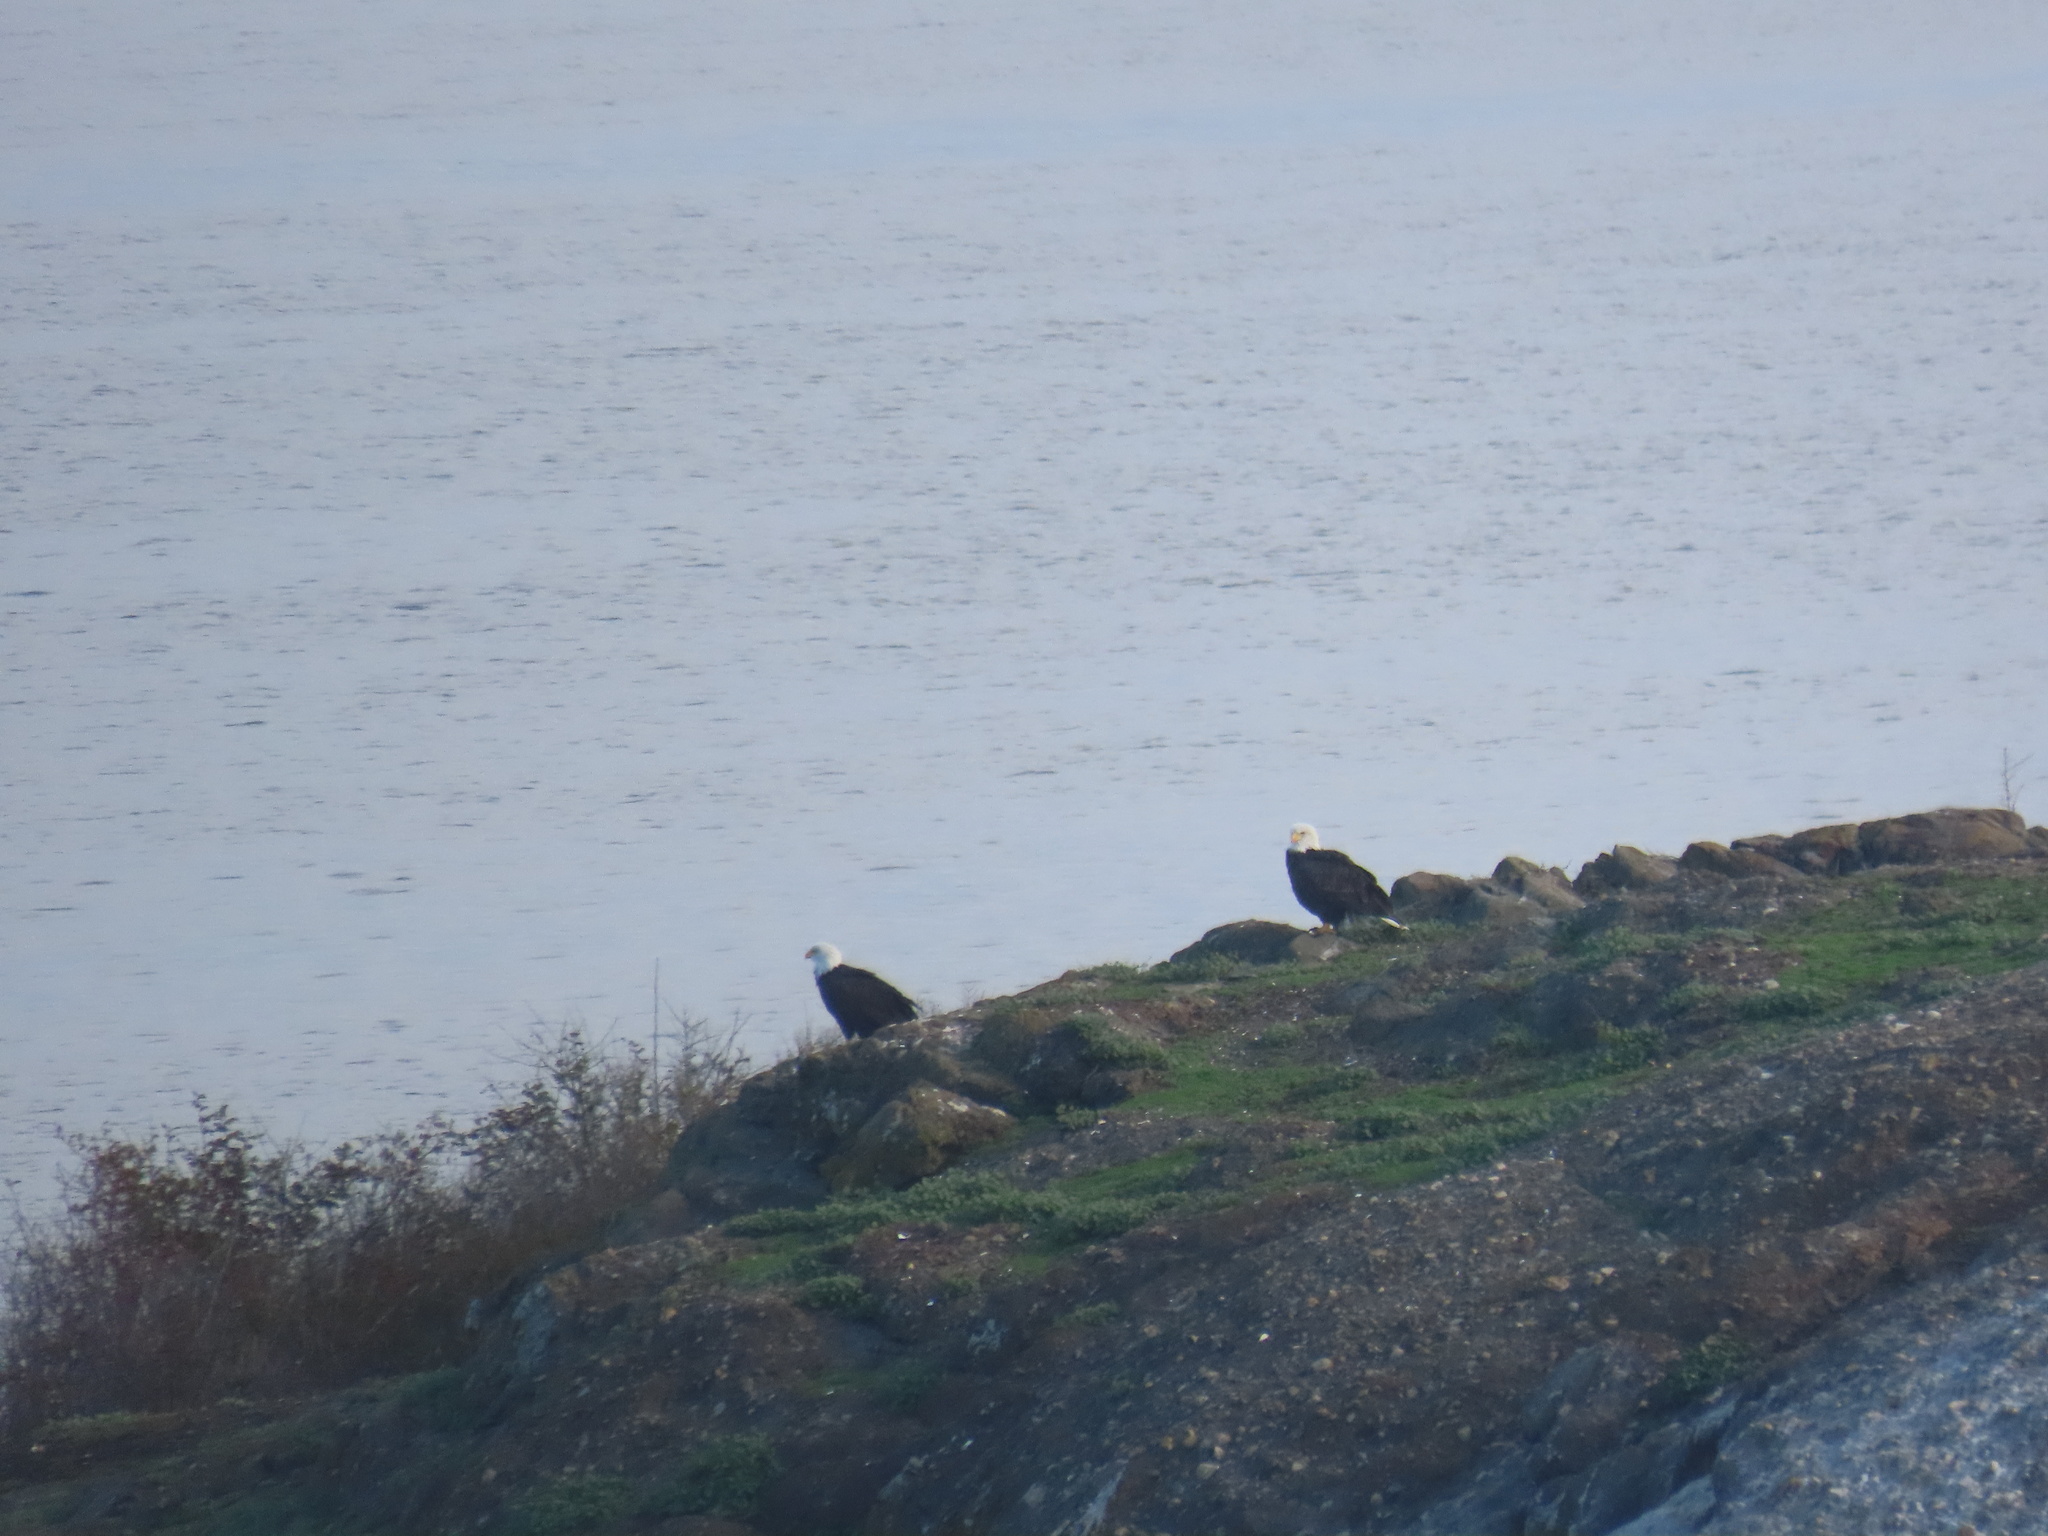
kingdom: Animalia
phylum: Chordata
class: Aves
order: Accipitriformes
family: Accipitridae
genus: Haliaeetus
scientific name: Haliaeetus leucocephalus
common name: Bald eagle
